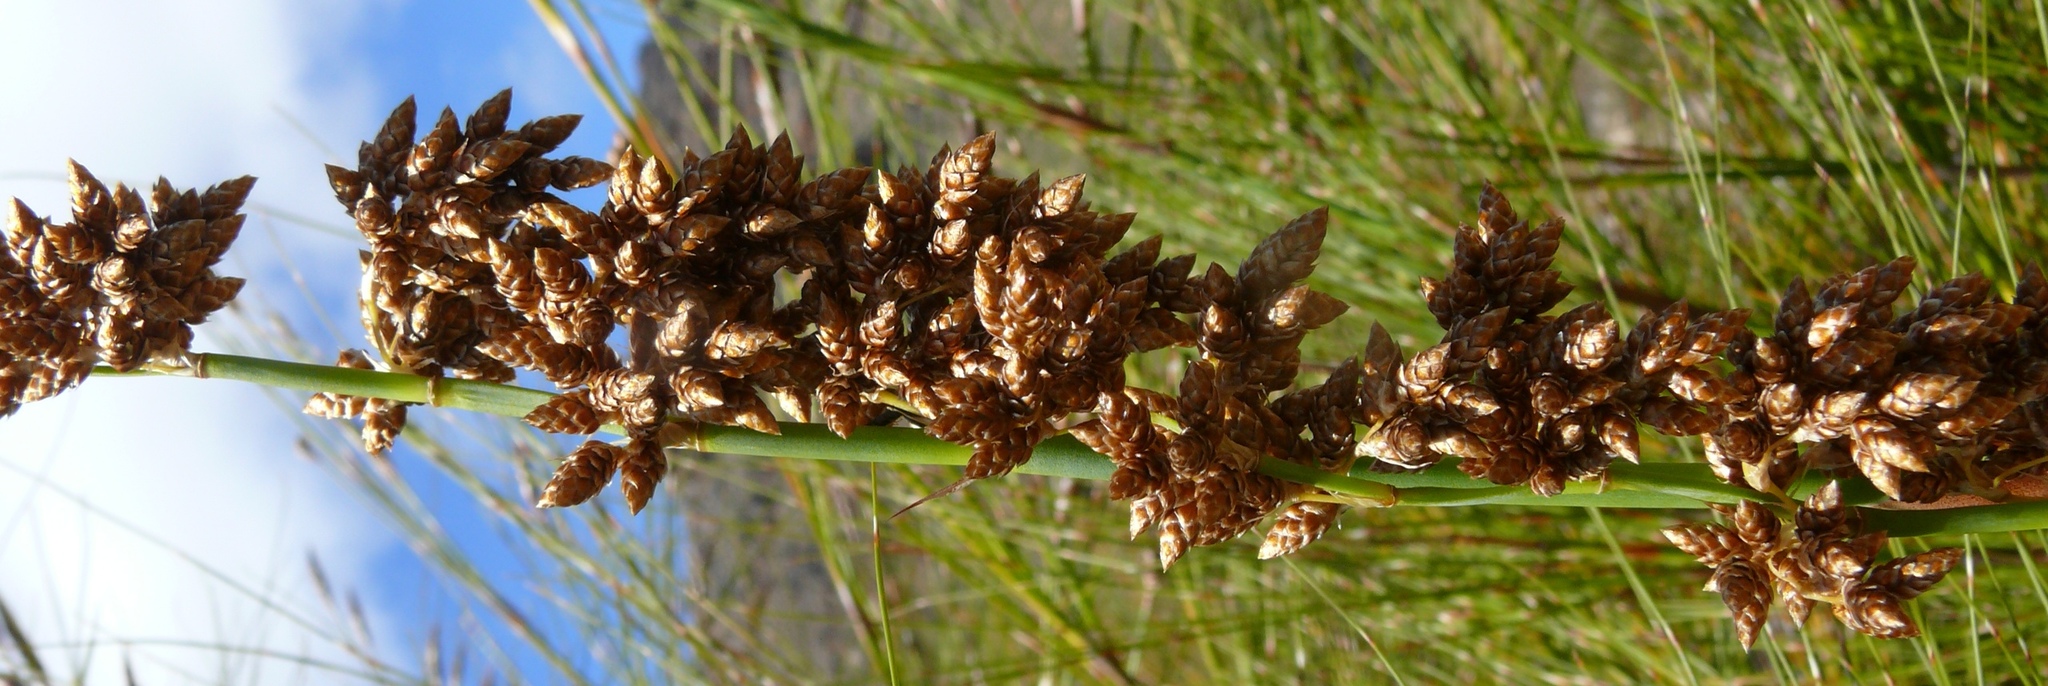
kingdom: Plantae
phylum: Tracheophyta
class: Liliopsida
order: Poales
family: Restionaceae
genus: Cannomois
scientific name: Cannomois robusta
